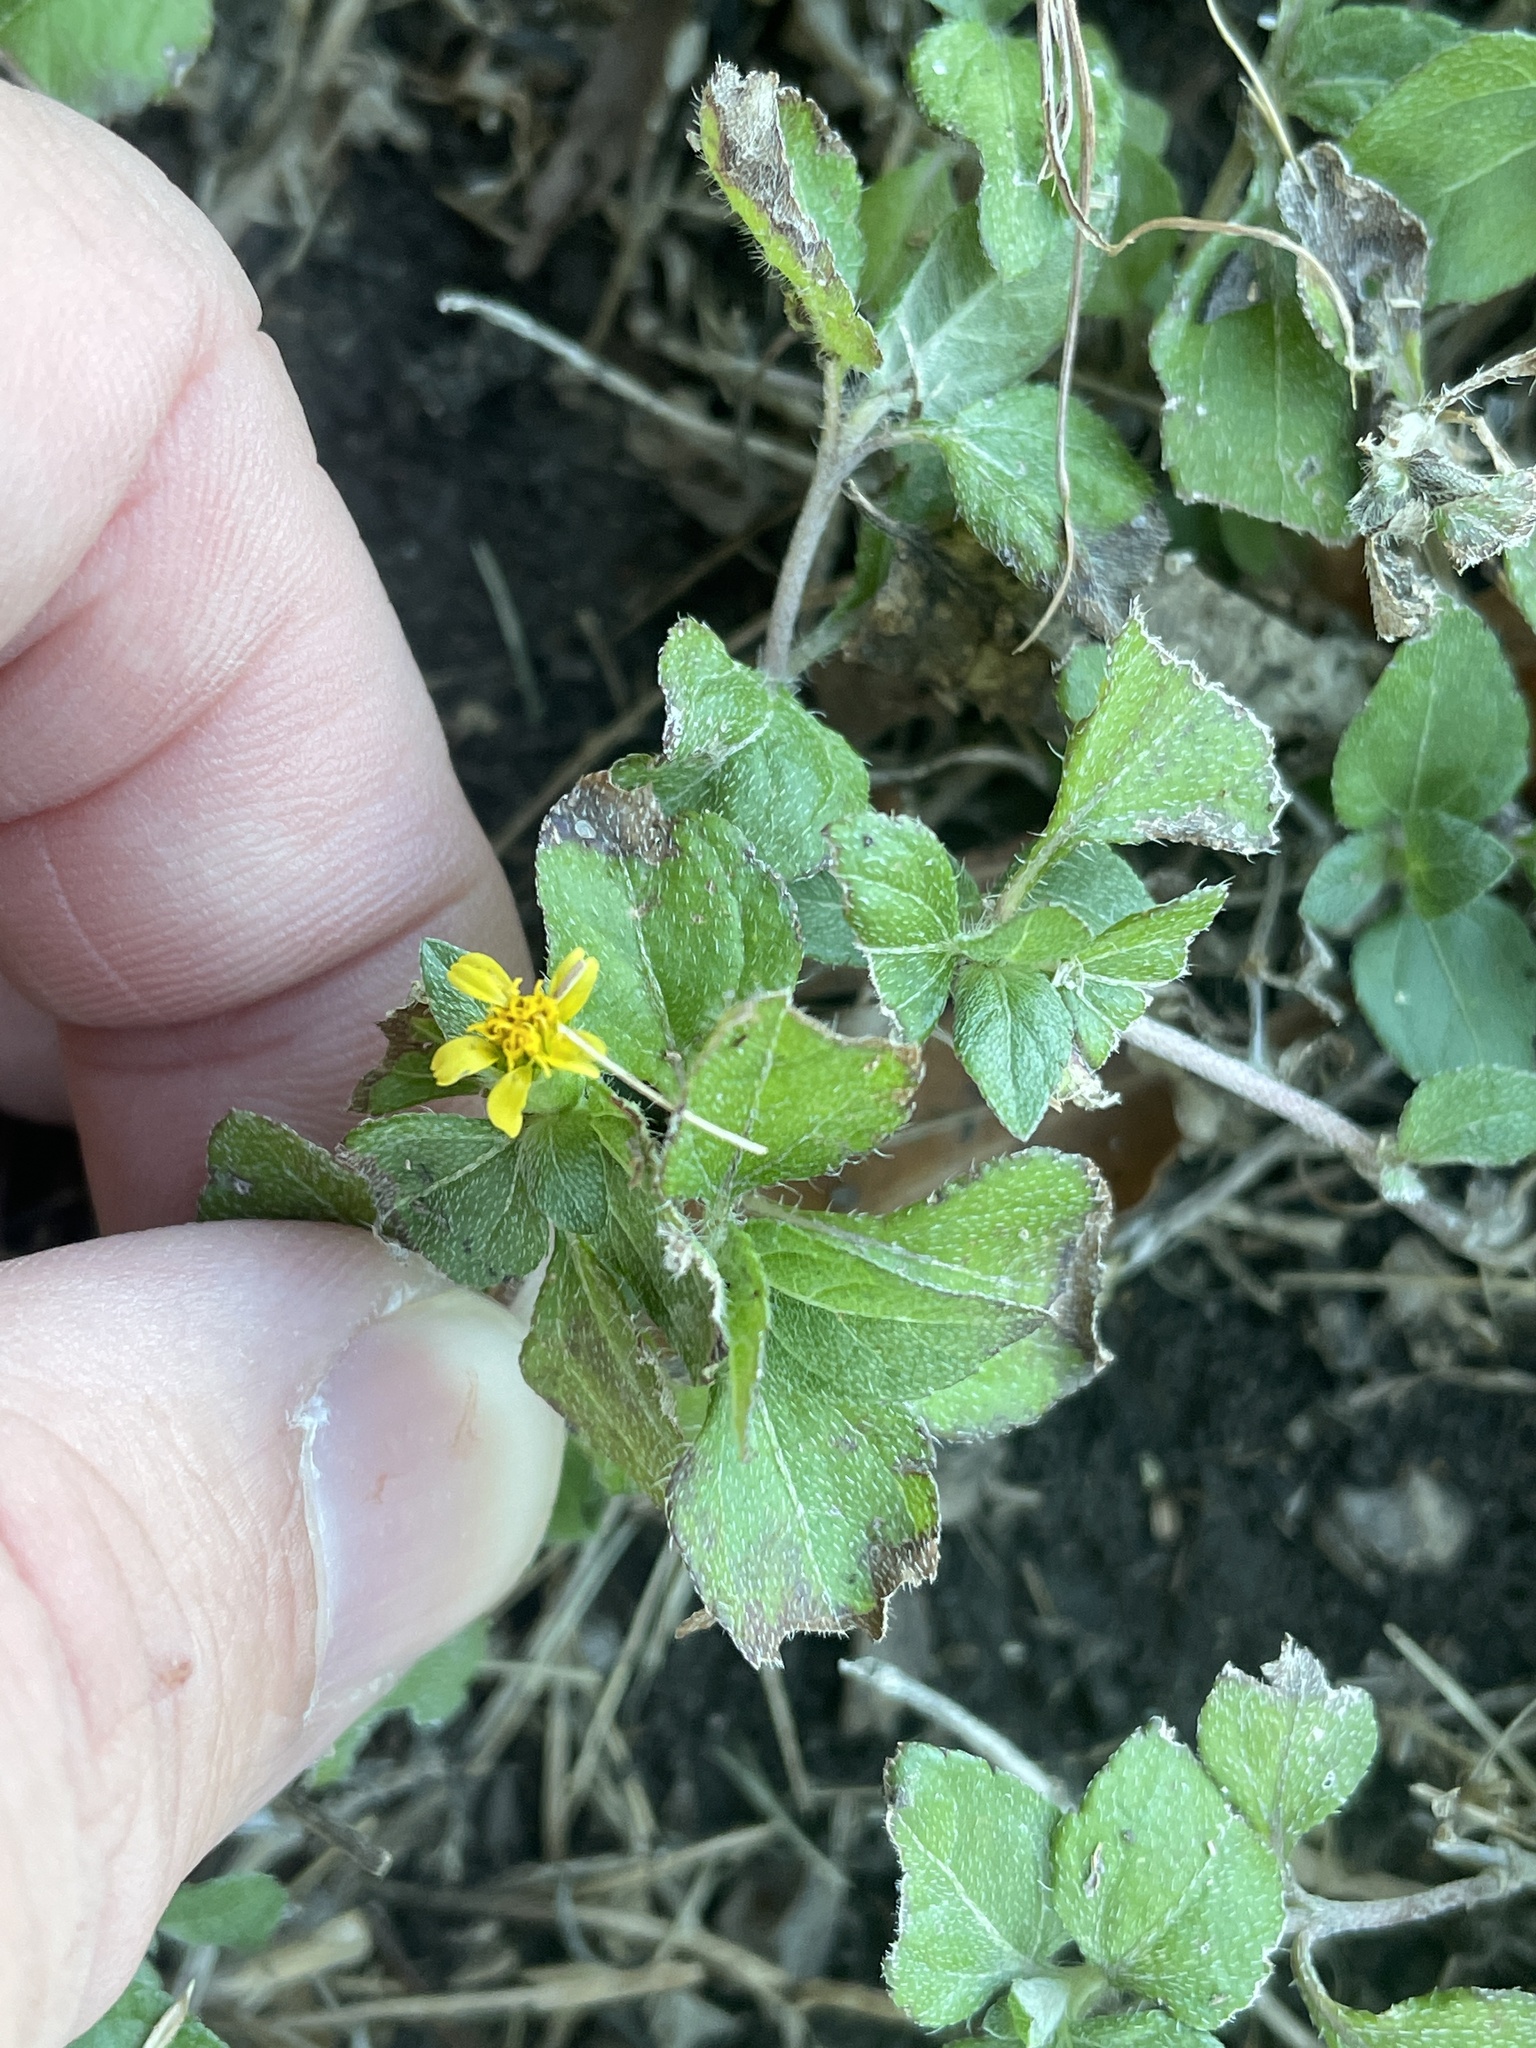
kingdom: Plantae
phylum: Tracheophyta
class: Magnoliopsida
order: Asterales
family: Asteraceae
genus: Calyptocarpus
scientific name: Calyptocarpus vialis
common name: Straggler daisy
